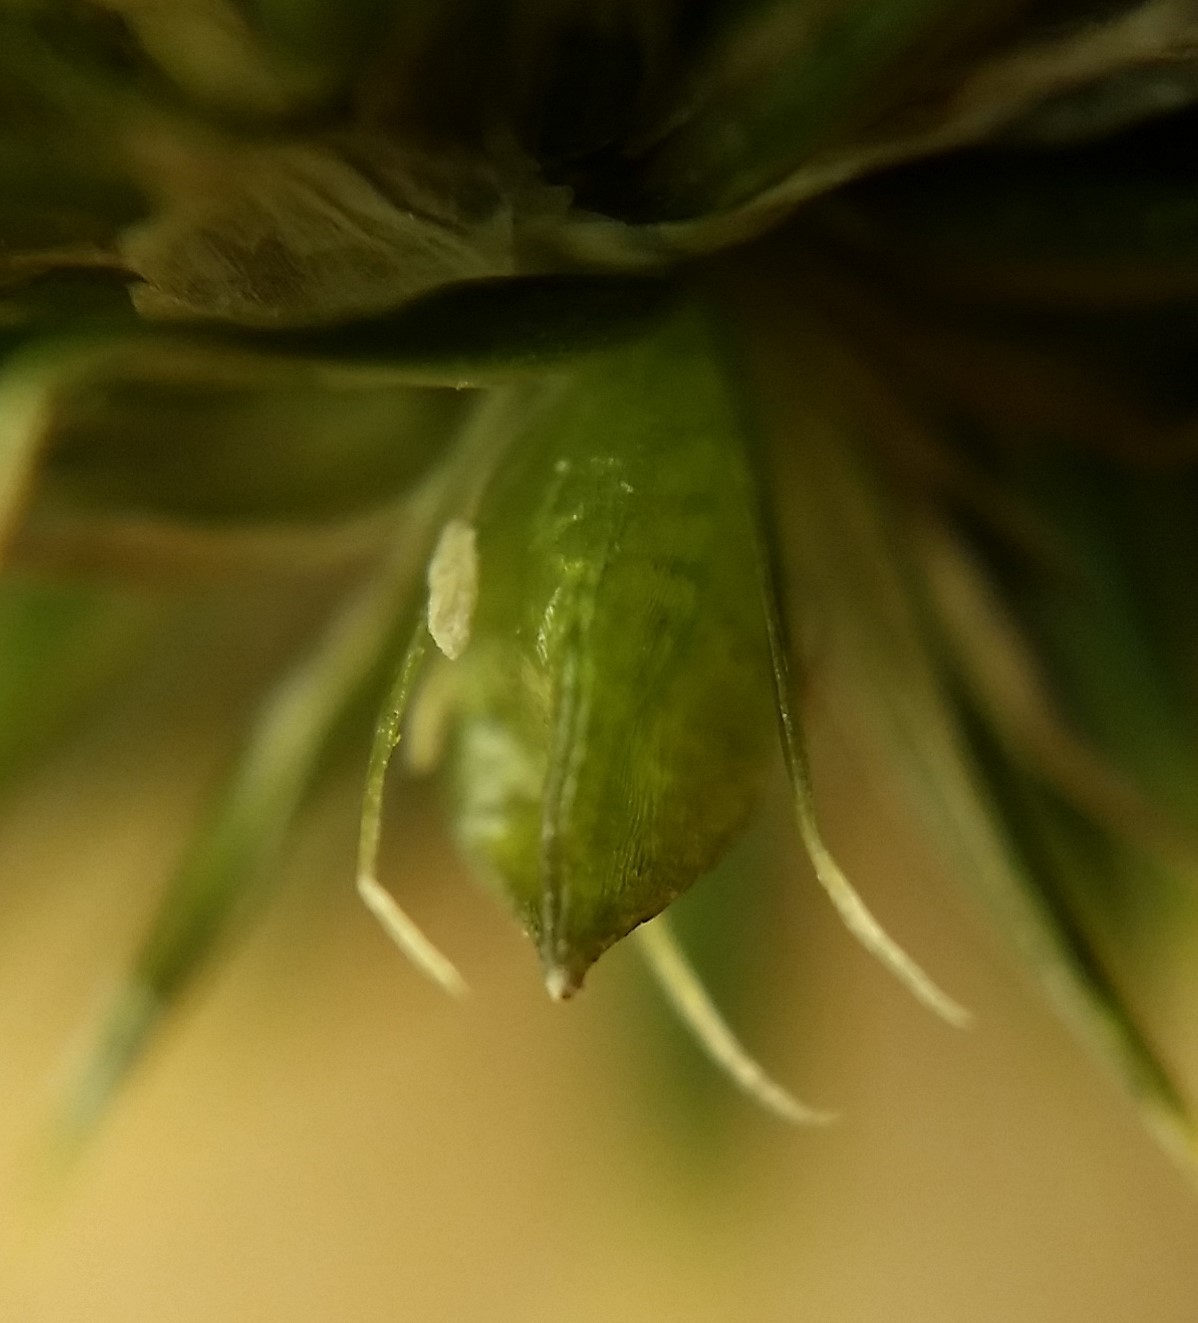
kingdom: Plantae
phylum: Tracheophyta
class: Liliopsida
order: Poales
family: Juncaceae
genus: Juncus
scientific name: Juncus brachycarpus
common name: Shore rush
